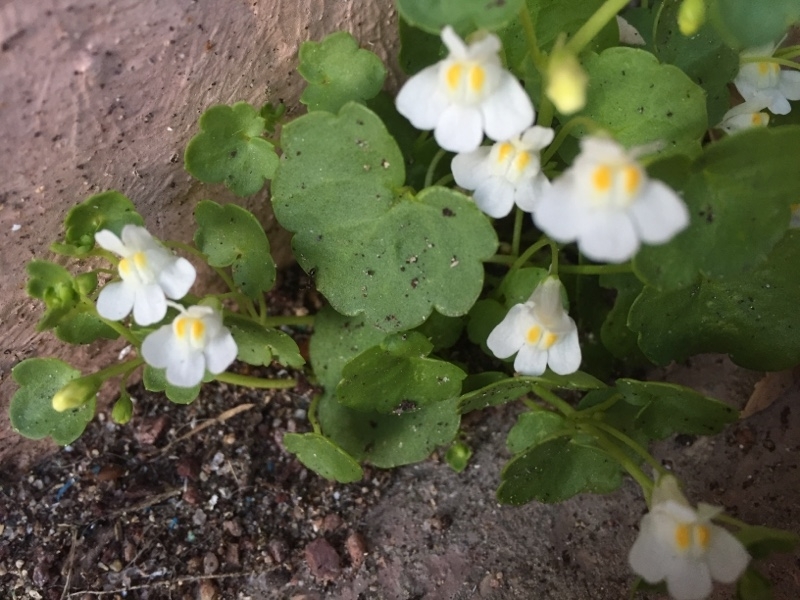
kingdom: Plantae
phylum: Tracheophyta
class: Magnoliopsida
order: Lamiales
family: Plantaginaceae
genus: Cymbalaria
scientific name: Cymbalaria muralis
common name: Ivy-leaved toadflax
